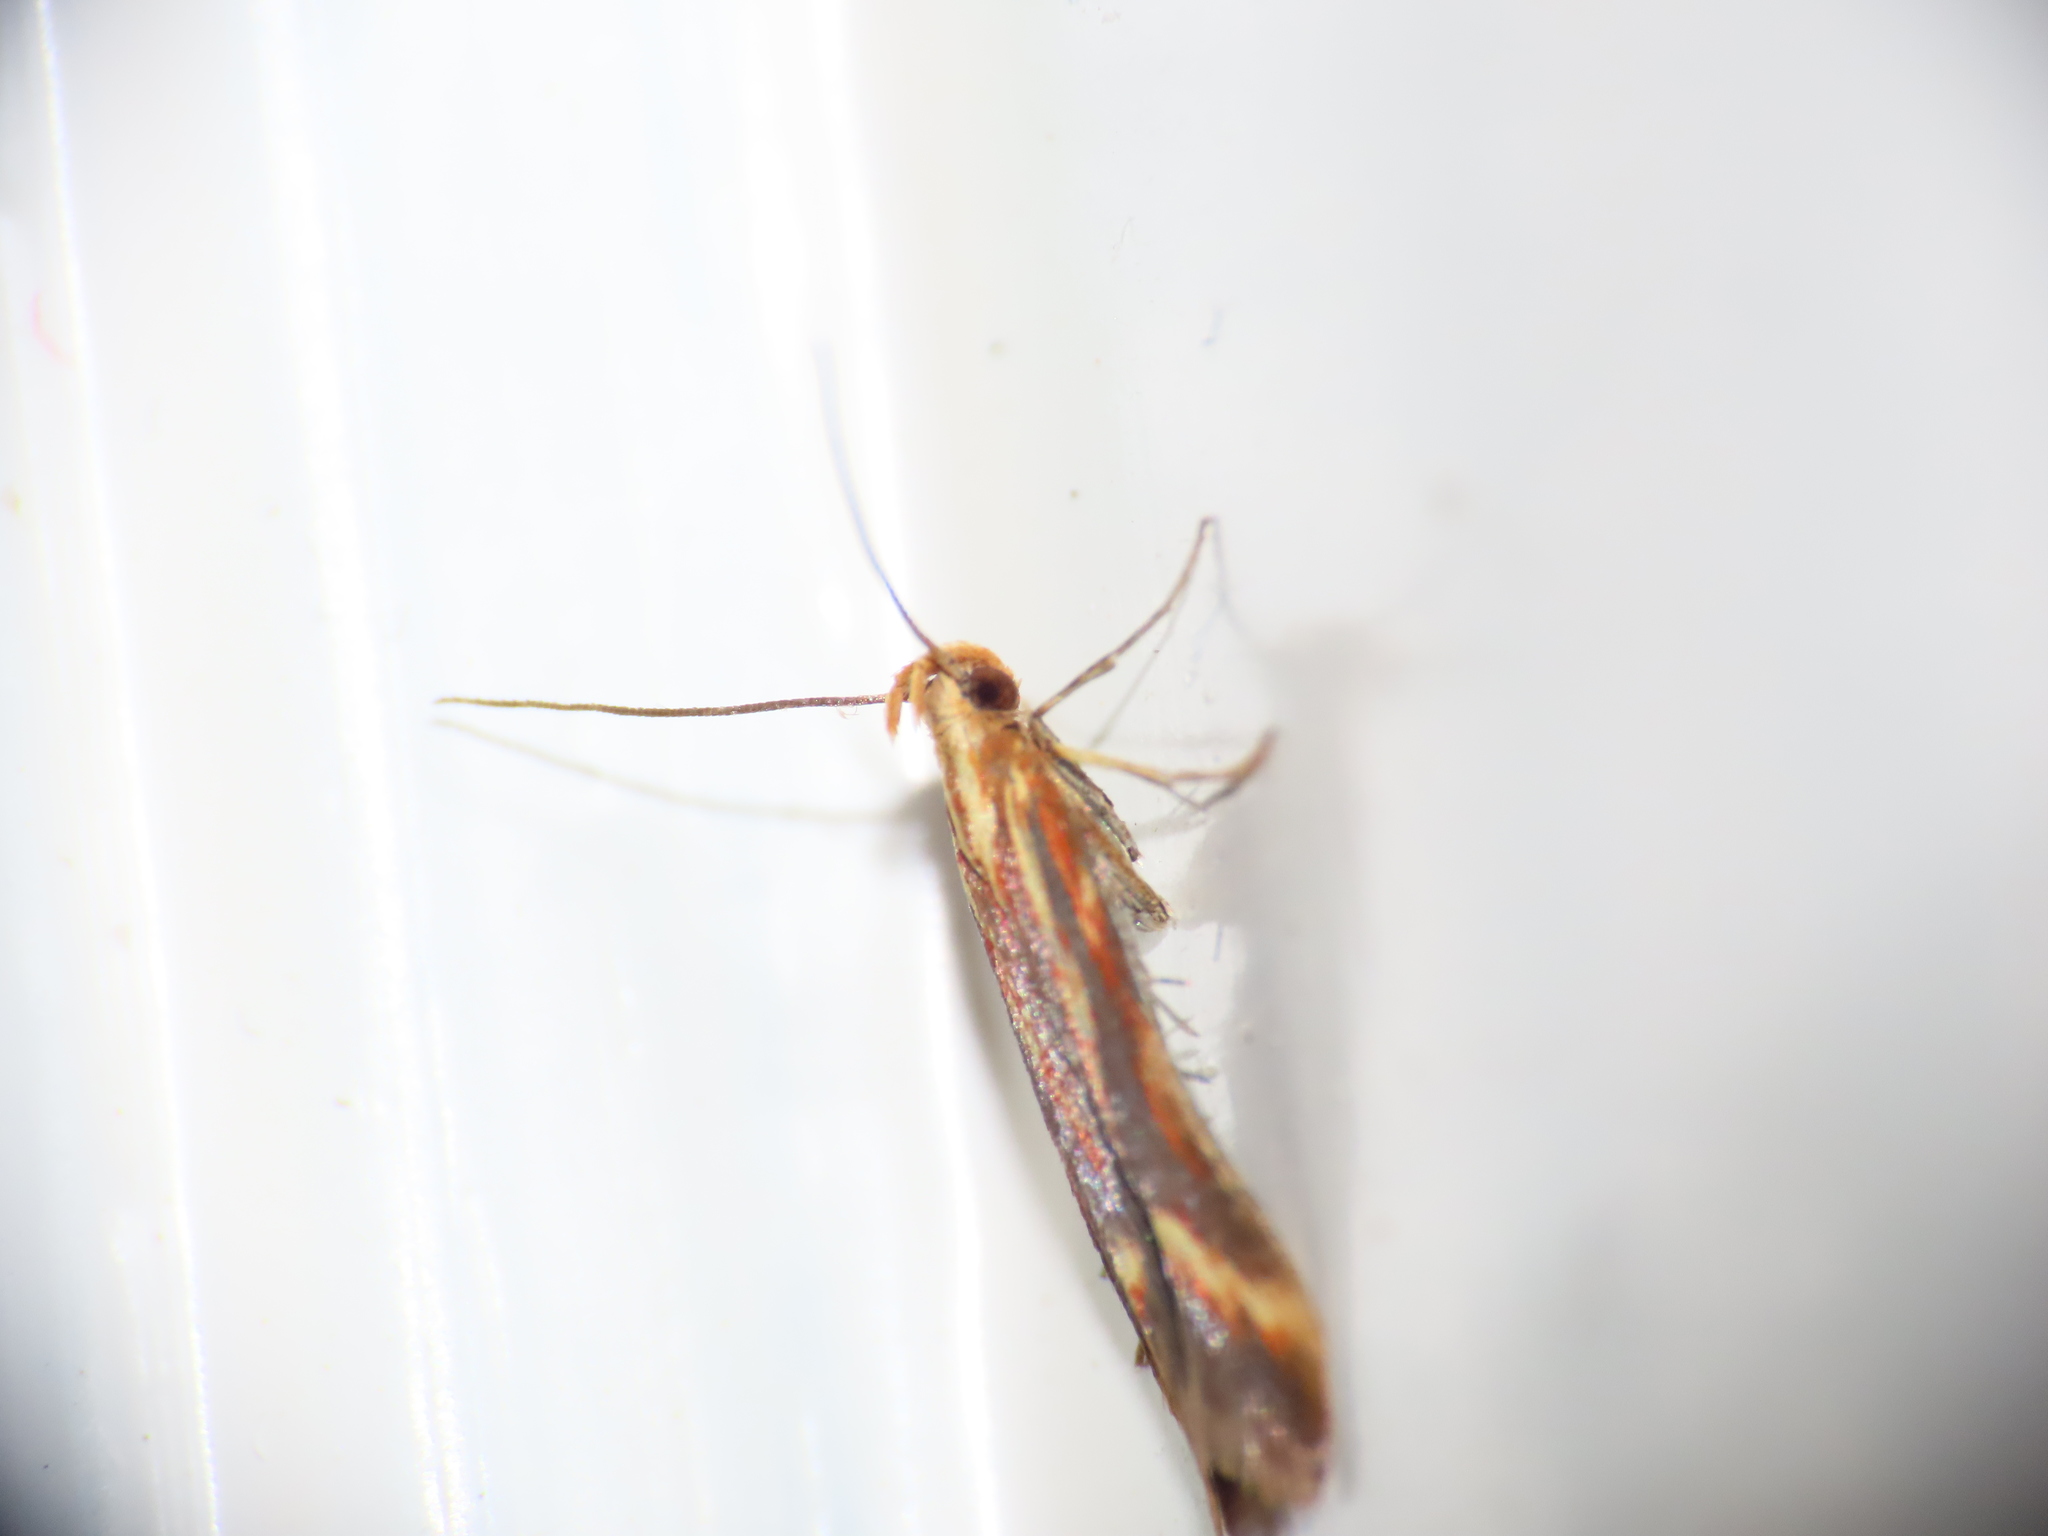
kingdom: Animalia
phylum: Arthropoda
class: Insecta
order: Lepidoptera
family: Gelechiidae
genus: Metzneria
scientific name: Metzneria aprilella
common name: Brilliant neb
